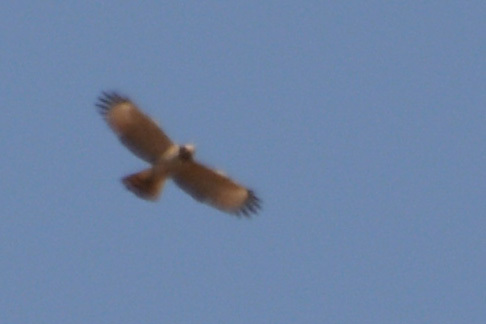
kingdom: Animalia
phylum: Chordata
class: Aves
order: Accipitriformes
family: Accipitridae
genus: Rupornis
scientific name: Rupornis magnirostris
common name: Roadside hawk
